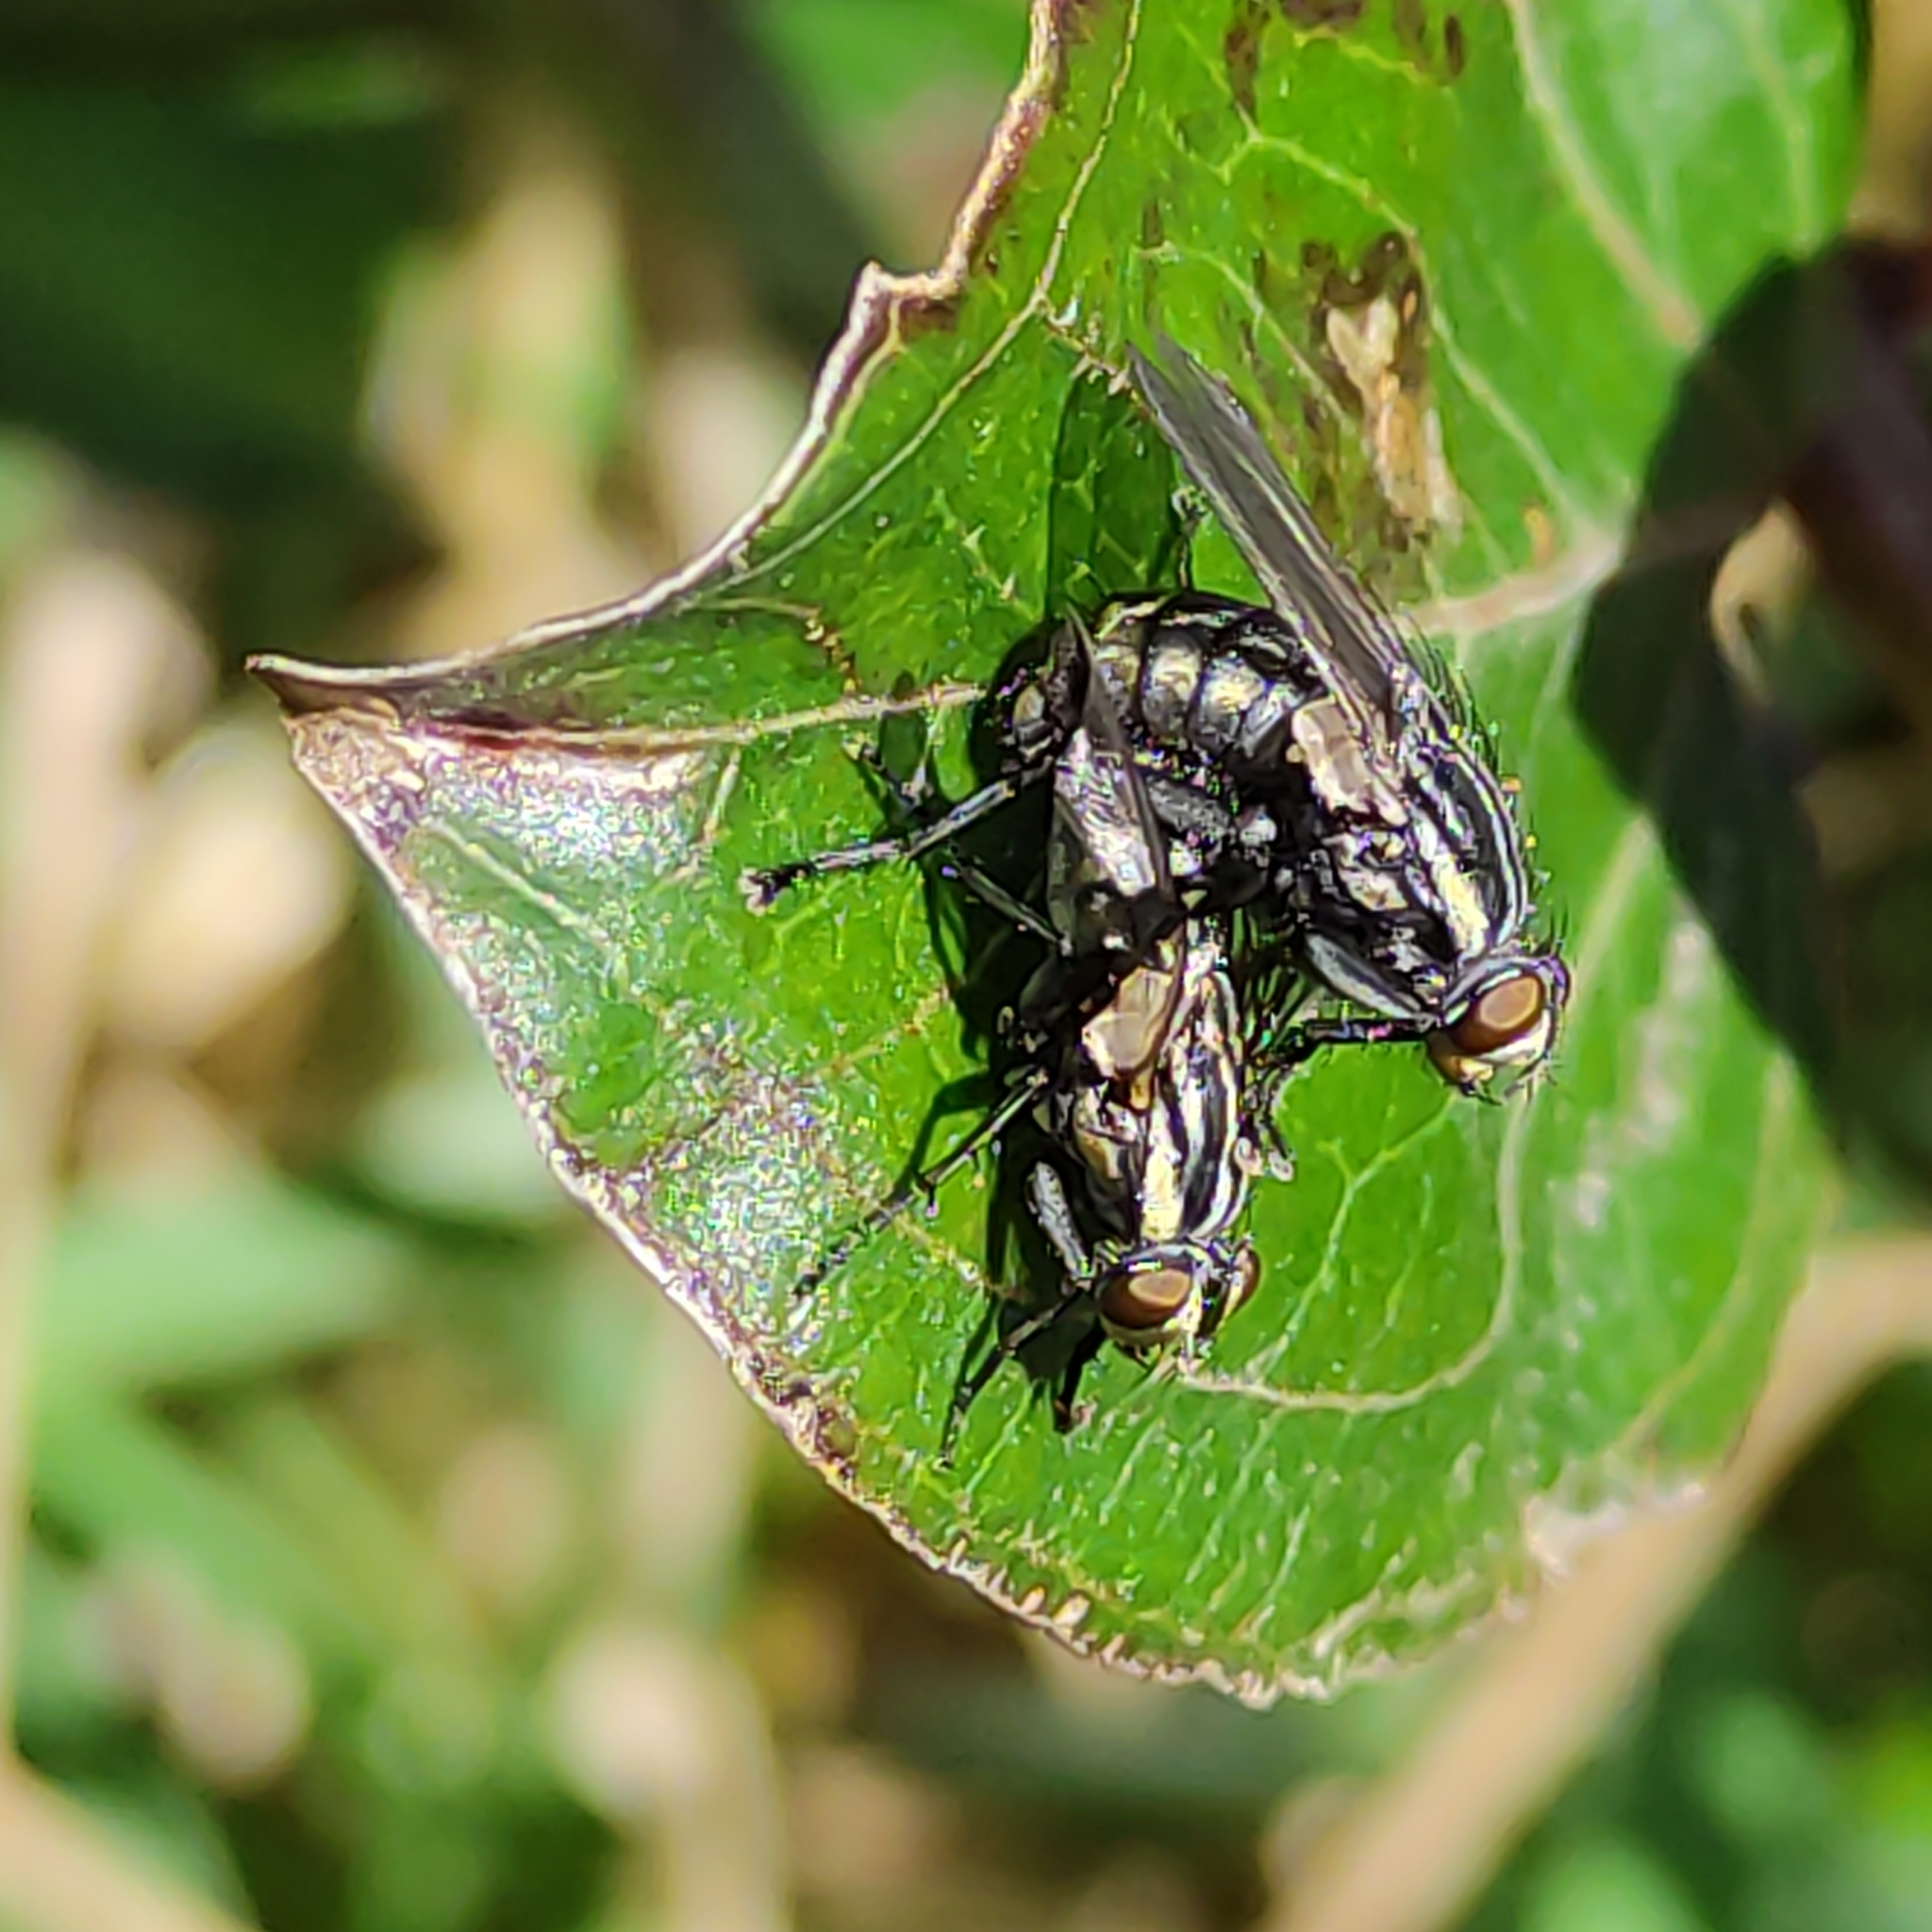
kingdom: Animalia
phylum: Arthropoda
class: Insecta
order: Diptera
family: Sarcophagidae
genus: Oxysarcodexia
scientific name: Oxysarcodexia varia
